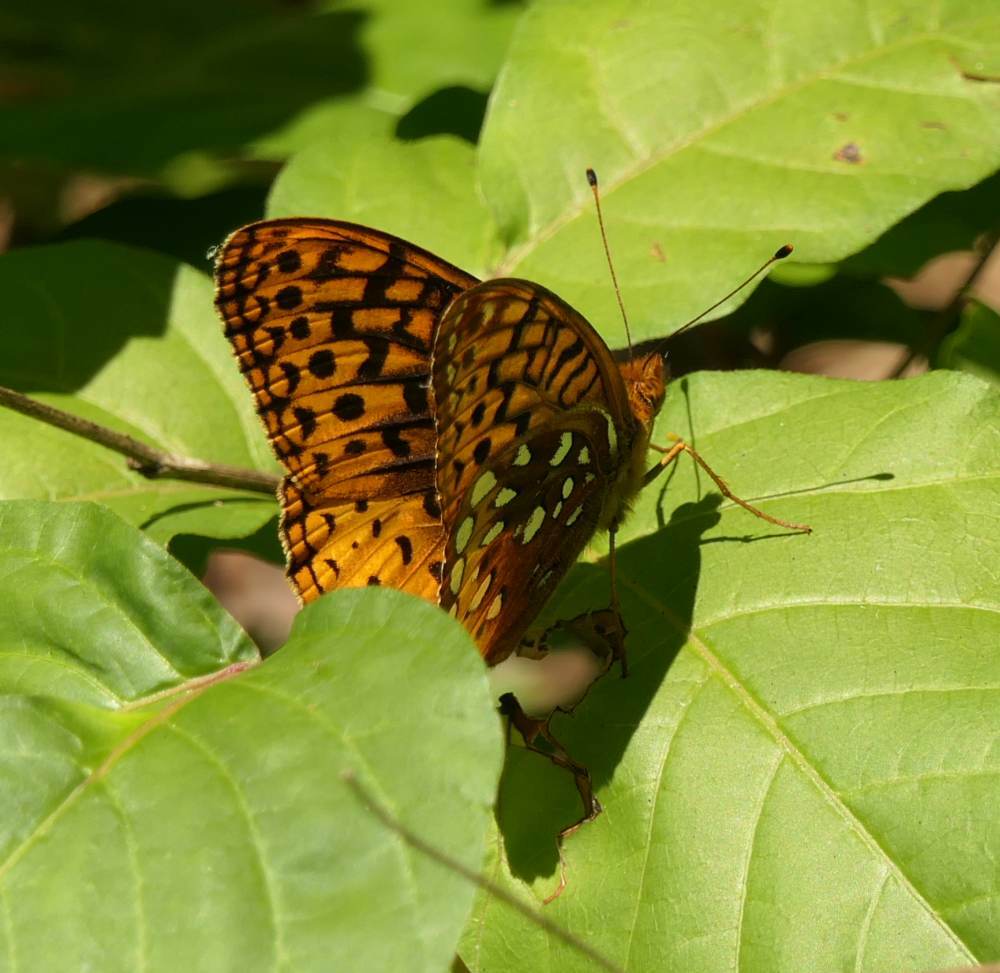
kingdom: Animalia
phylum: Arthropoda
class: Insecta
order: Lepidoptera
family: Nymphalidae
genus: Speyeria
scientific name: Speyeria cybele
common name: Great spangled fritillary
